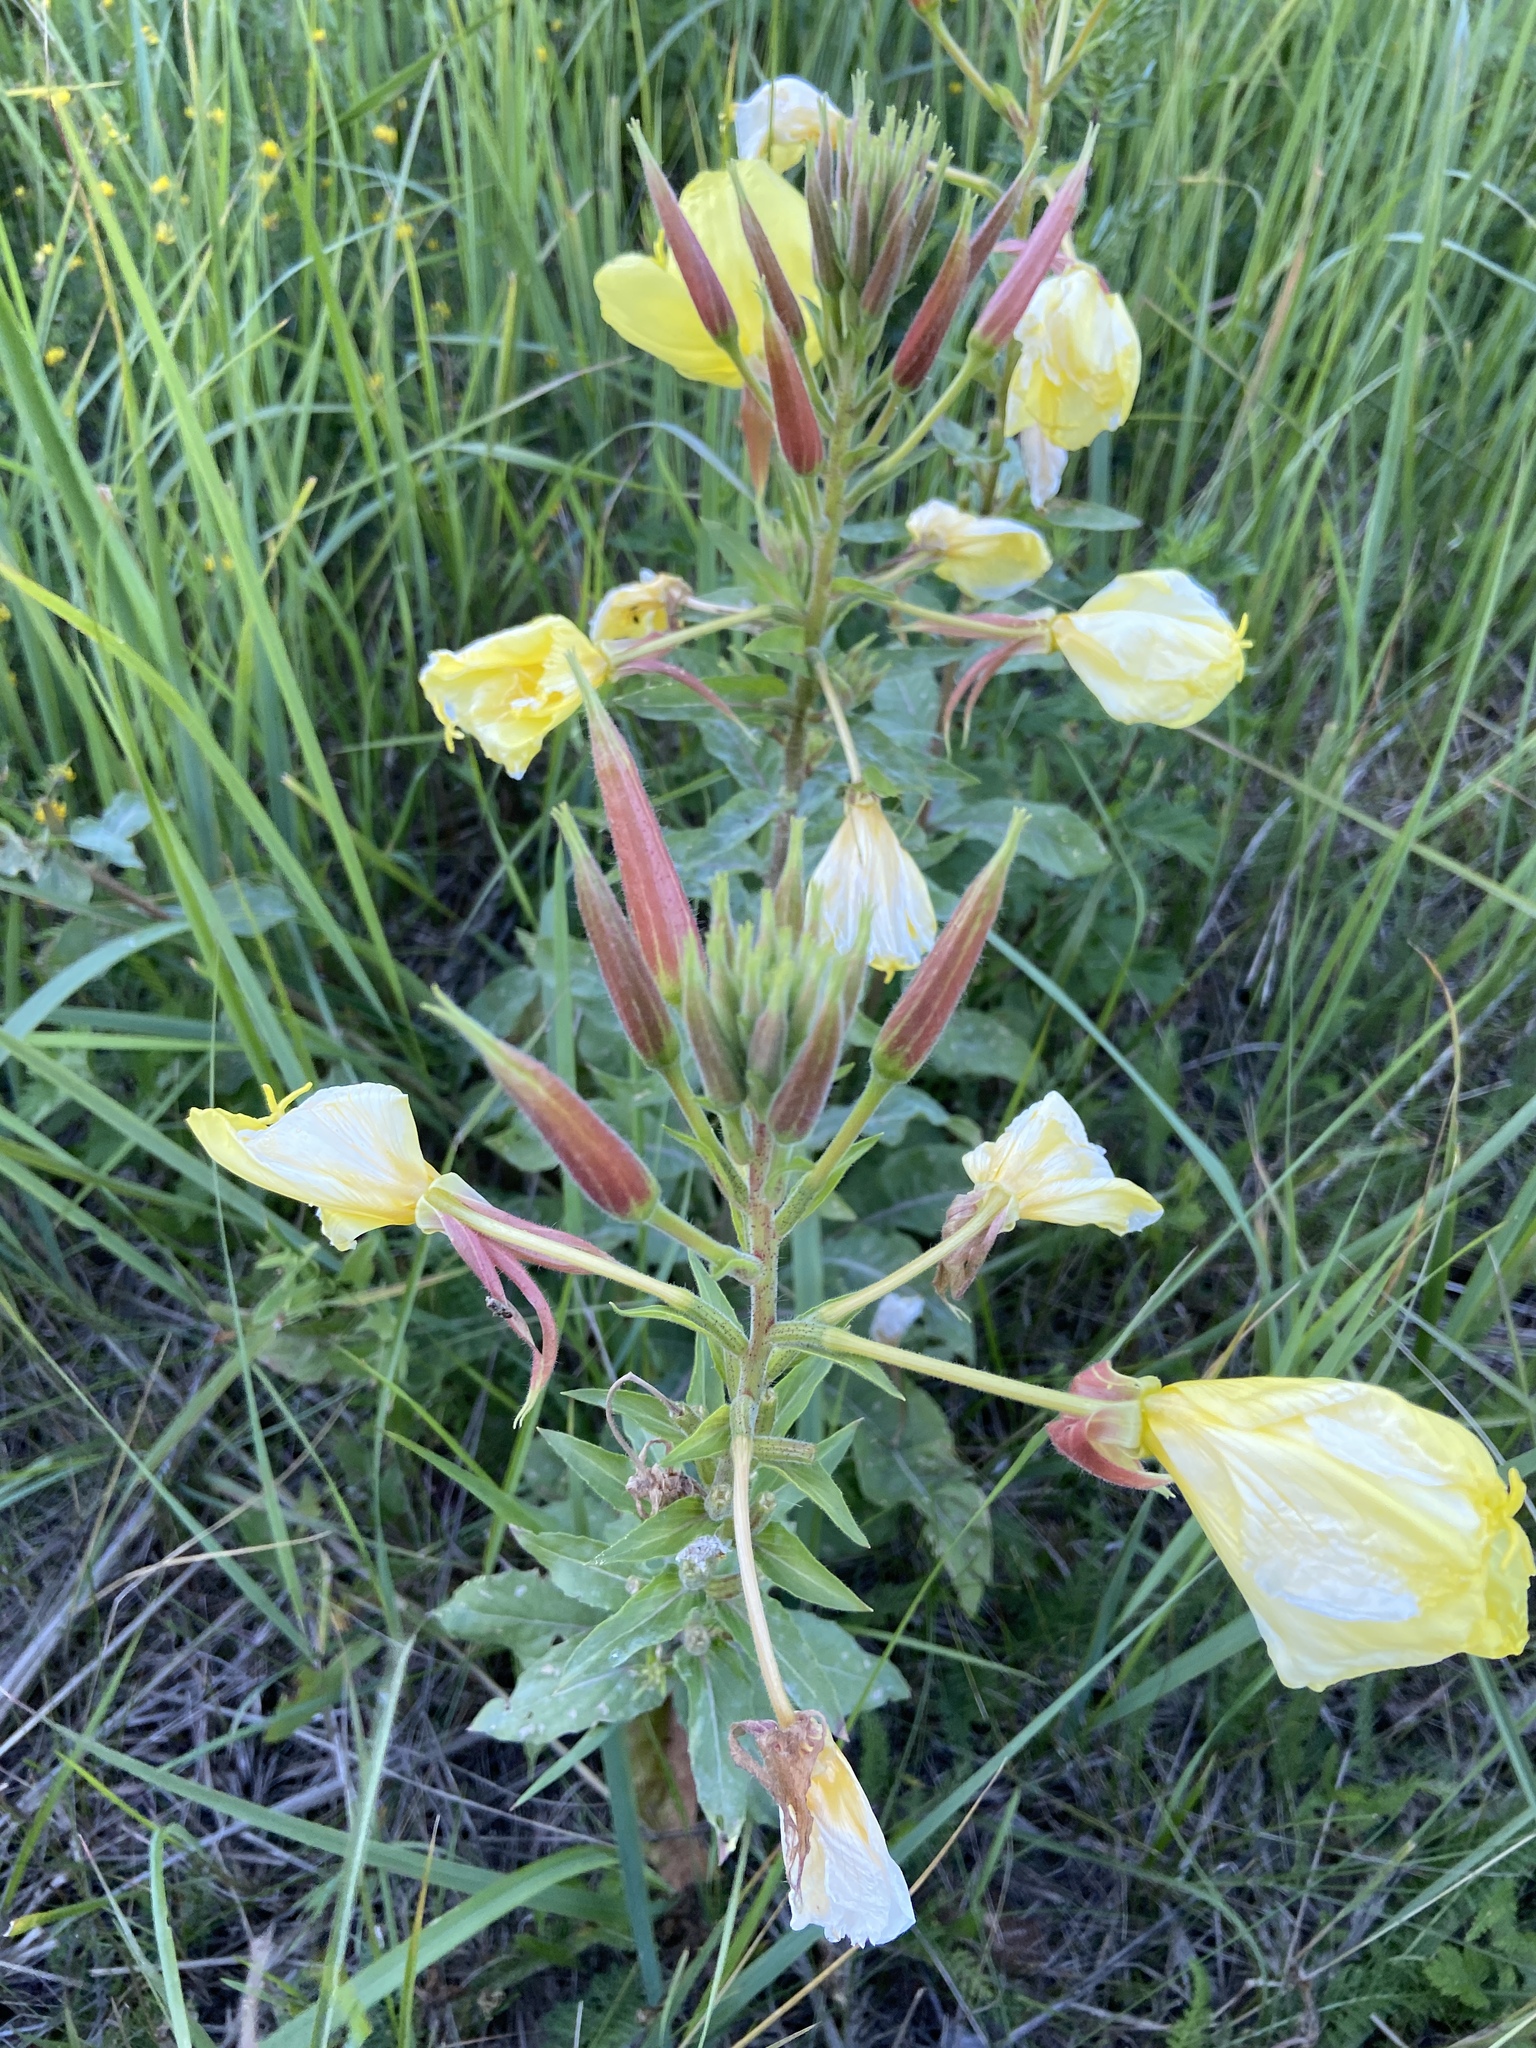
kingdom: Plantae
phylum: Tracheophyta
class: Magnoliopsida
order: Myrtales
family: Onagraceae
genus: Oenothera
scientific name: Oenothera glazioviana
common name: Large-flowered evening-primrose
